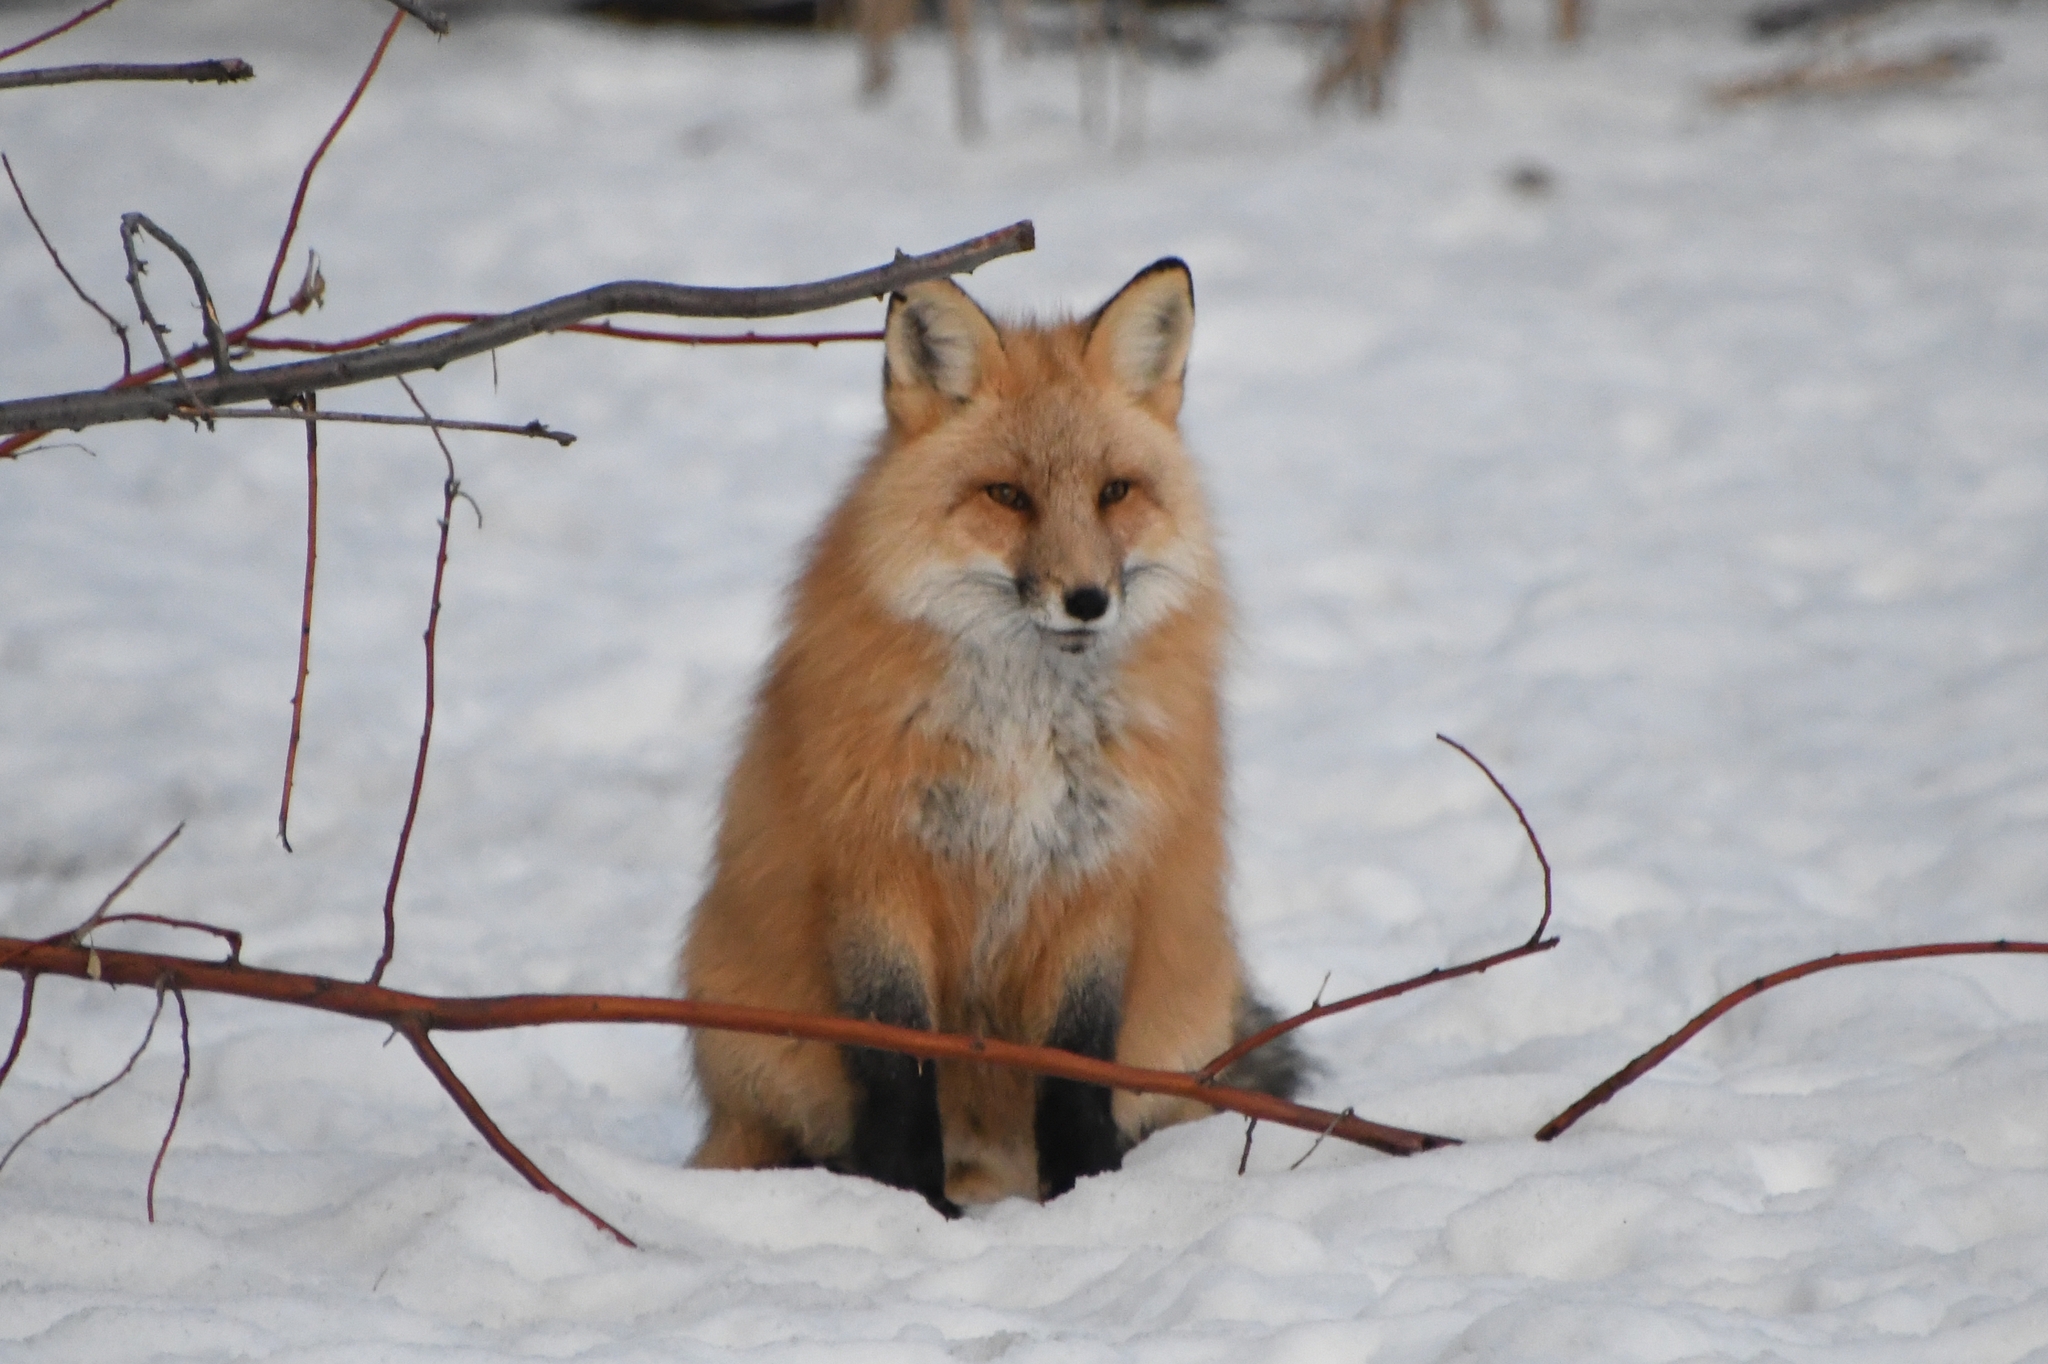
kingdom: Animalia
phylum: Chordata
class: Mammalia
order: Carnivora
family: Canidae
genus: Vulpes
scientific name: Vulpes vulpes
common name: Red fox
